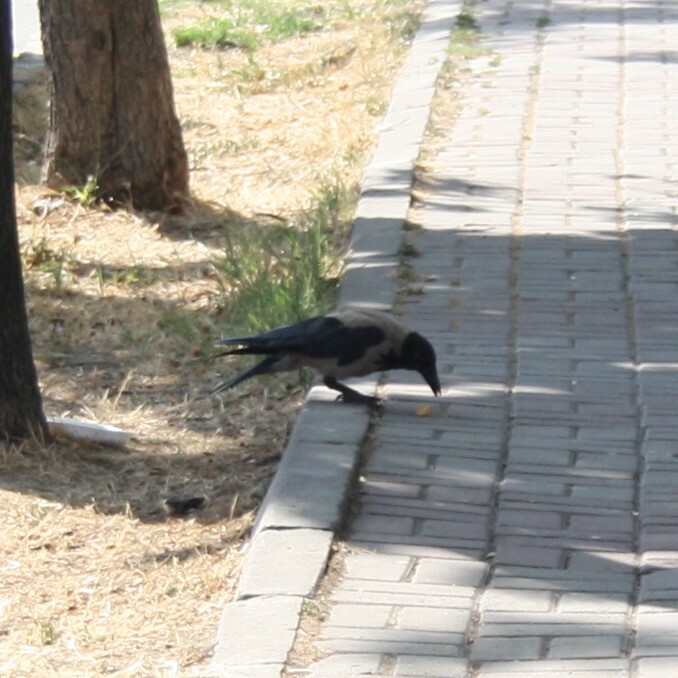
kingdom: Animalia
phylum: Chordata
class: Aves
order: Passeriformes
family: Corvidae
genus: Corvus
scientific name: Corvus cornix
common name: Hooded crow
